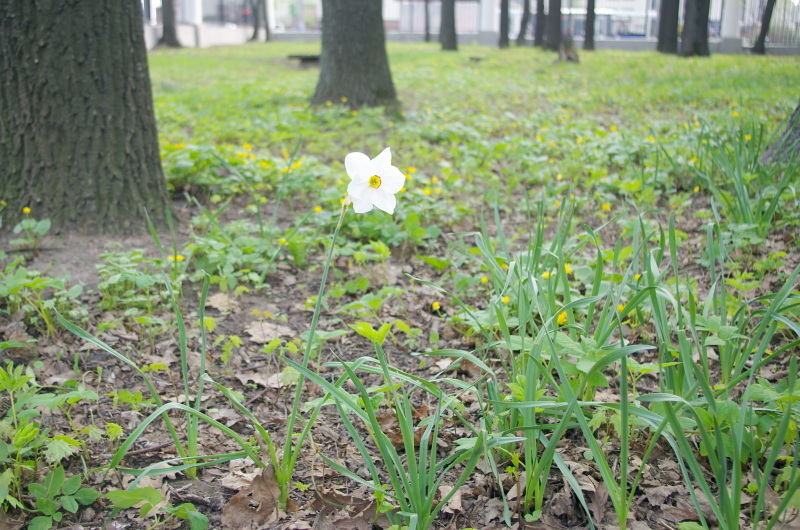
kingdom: Plantae
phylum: Tracheophyta
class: Liliopsida
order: Asparagales
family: Amaryllidaceae
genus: Narcissus
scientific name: Narcissus poeticus
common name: Pheasant's-eye daffodil
